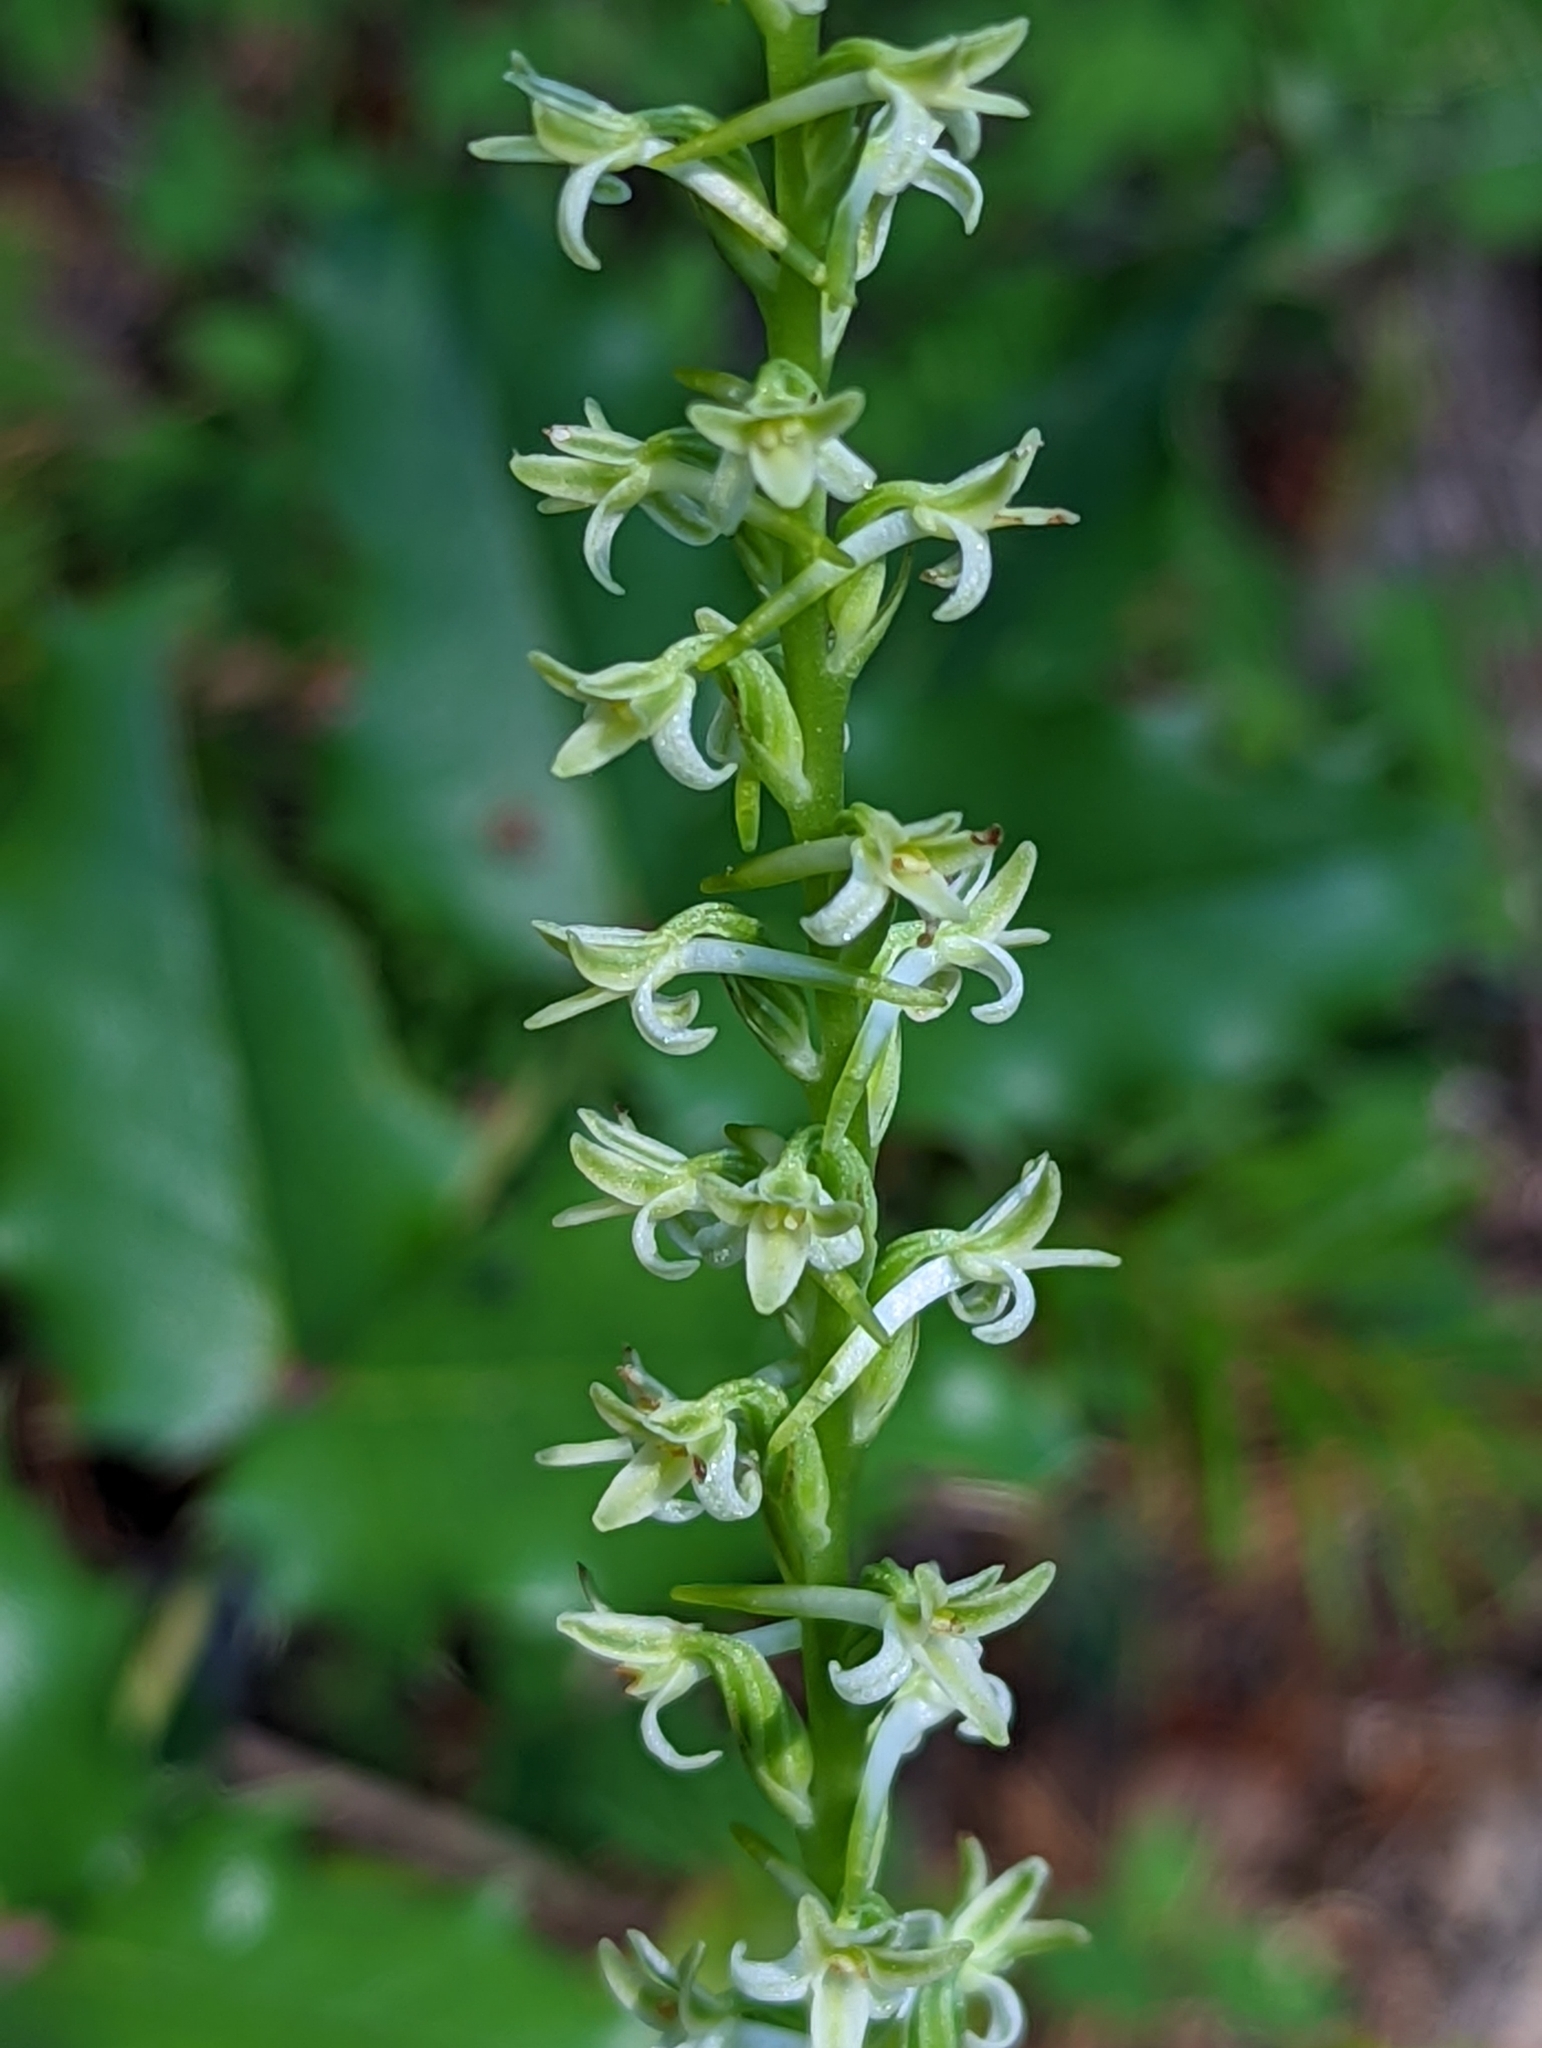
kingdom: Plantae
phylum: Tracheophyta
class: Liliopsida
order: Asparagales
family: Orchidaceae
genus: Platanthera
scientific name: Platanthera transversa
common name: Royal rein orchid
